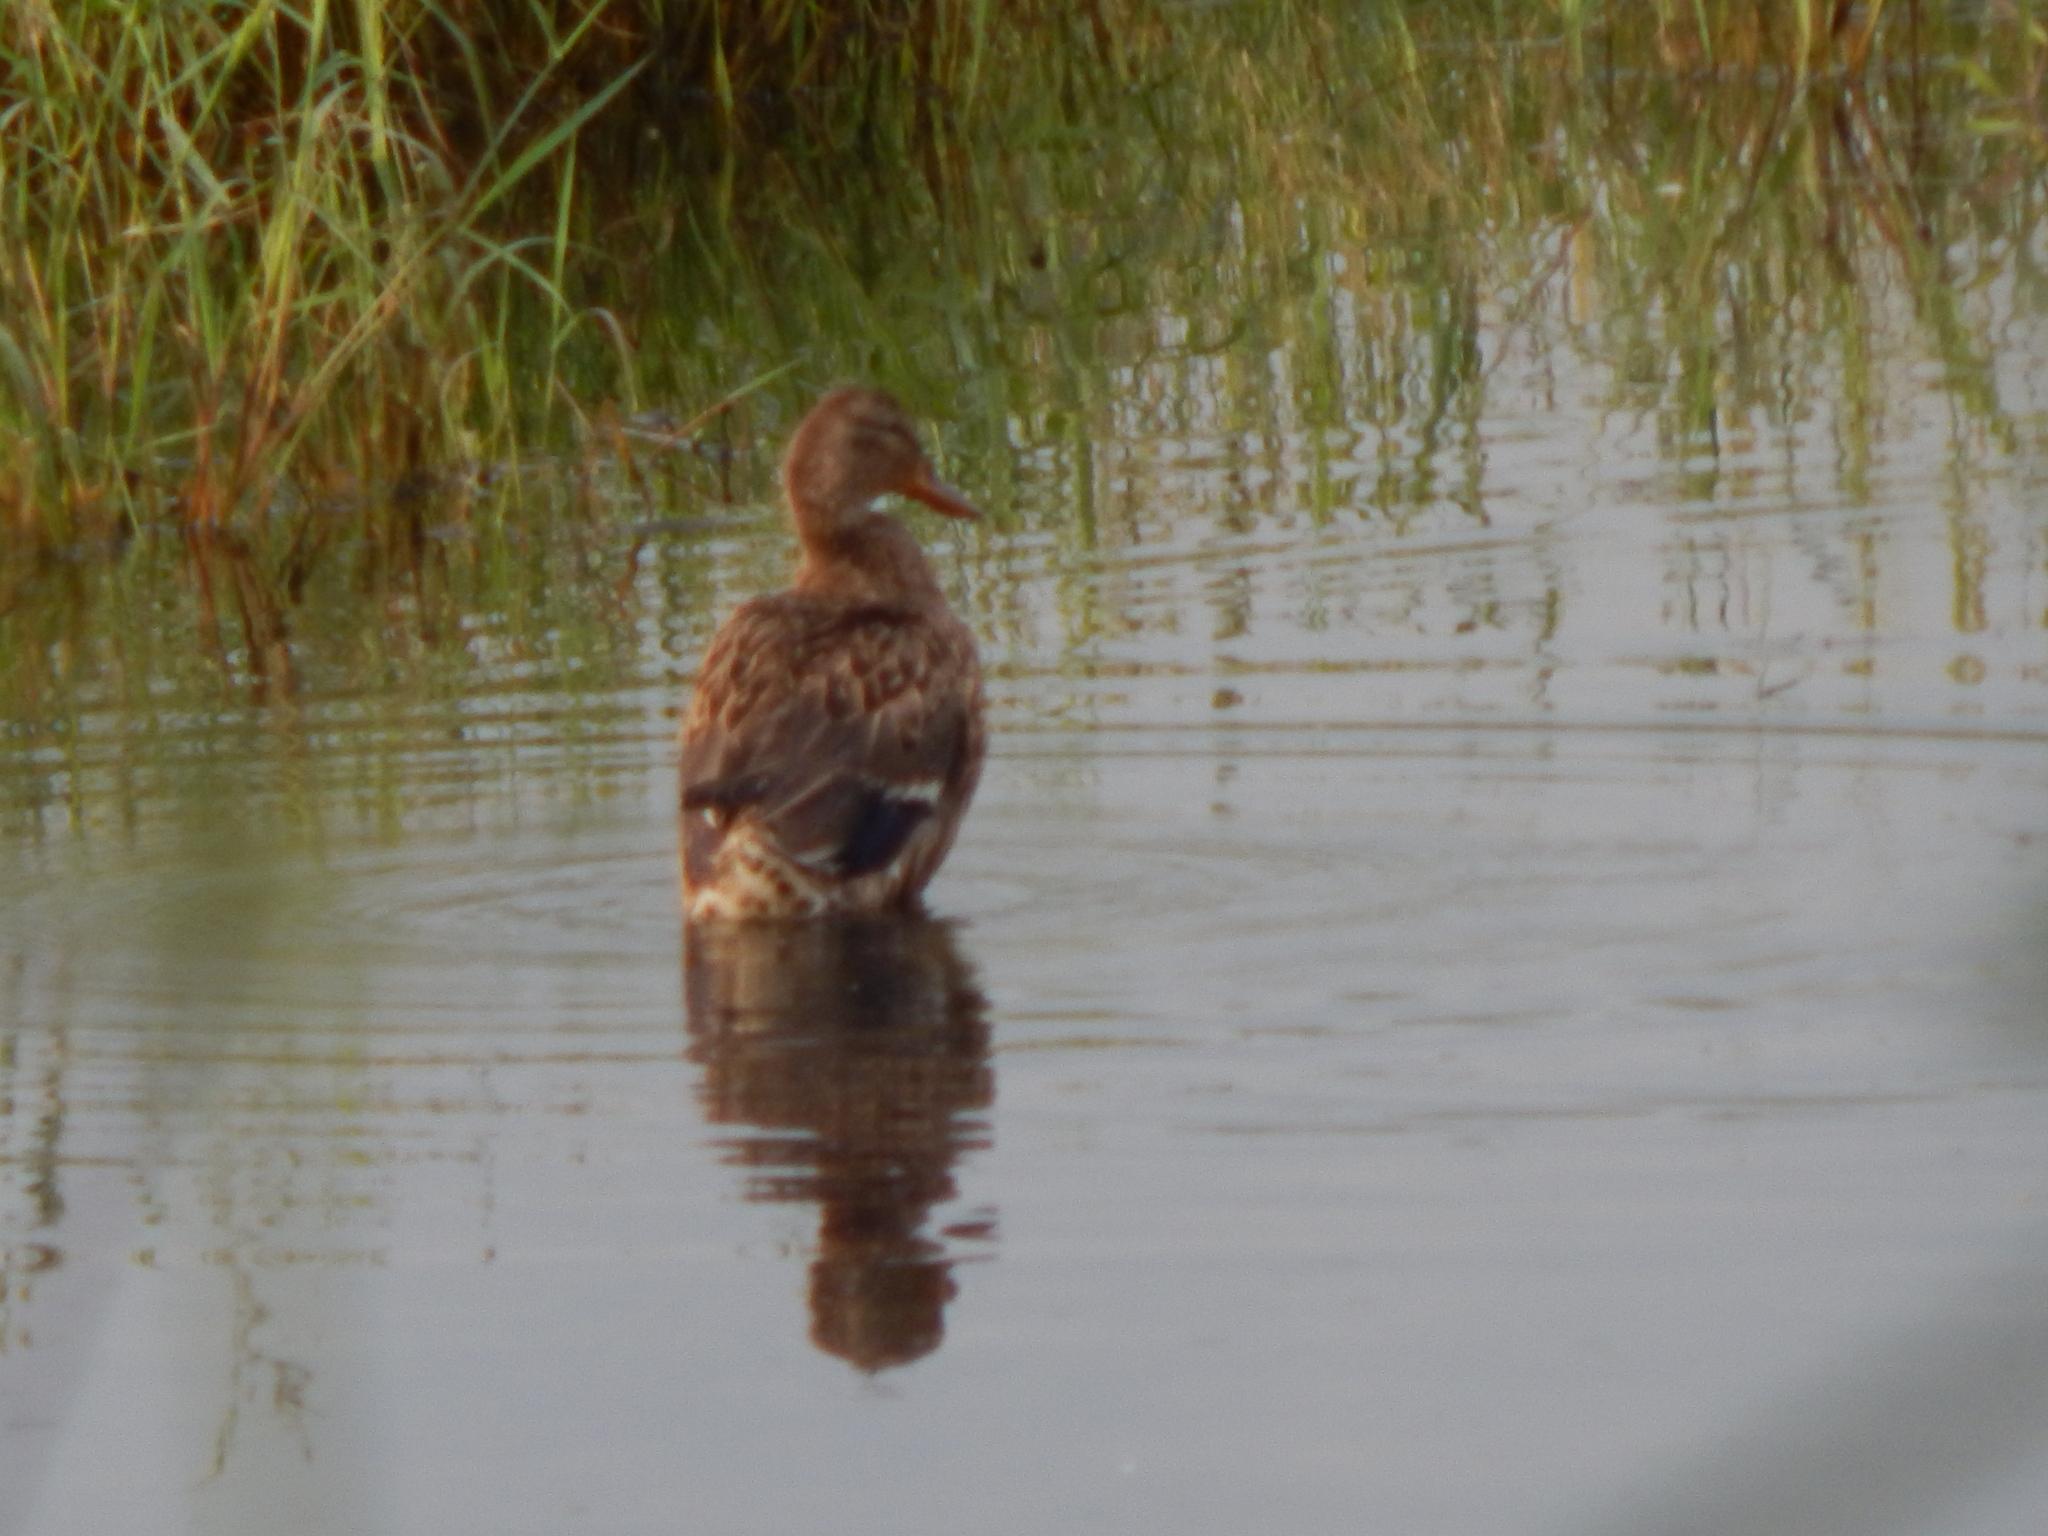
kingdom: Animalia
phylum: Chordata
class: Aves
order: Anseriformes
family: Anatidae
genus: Anas
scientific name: Anas platyrhynchos
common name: Mallard
